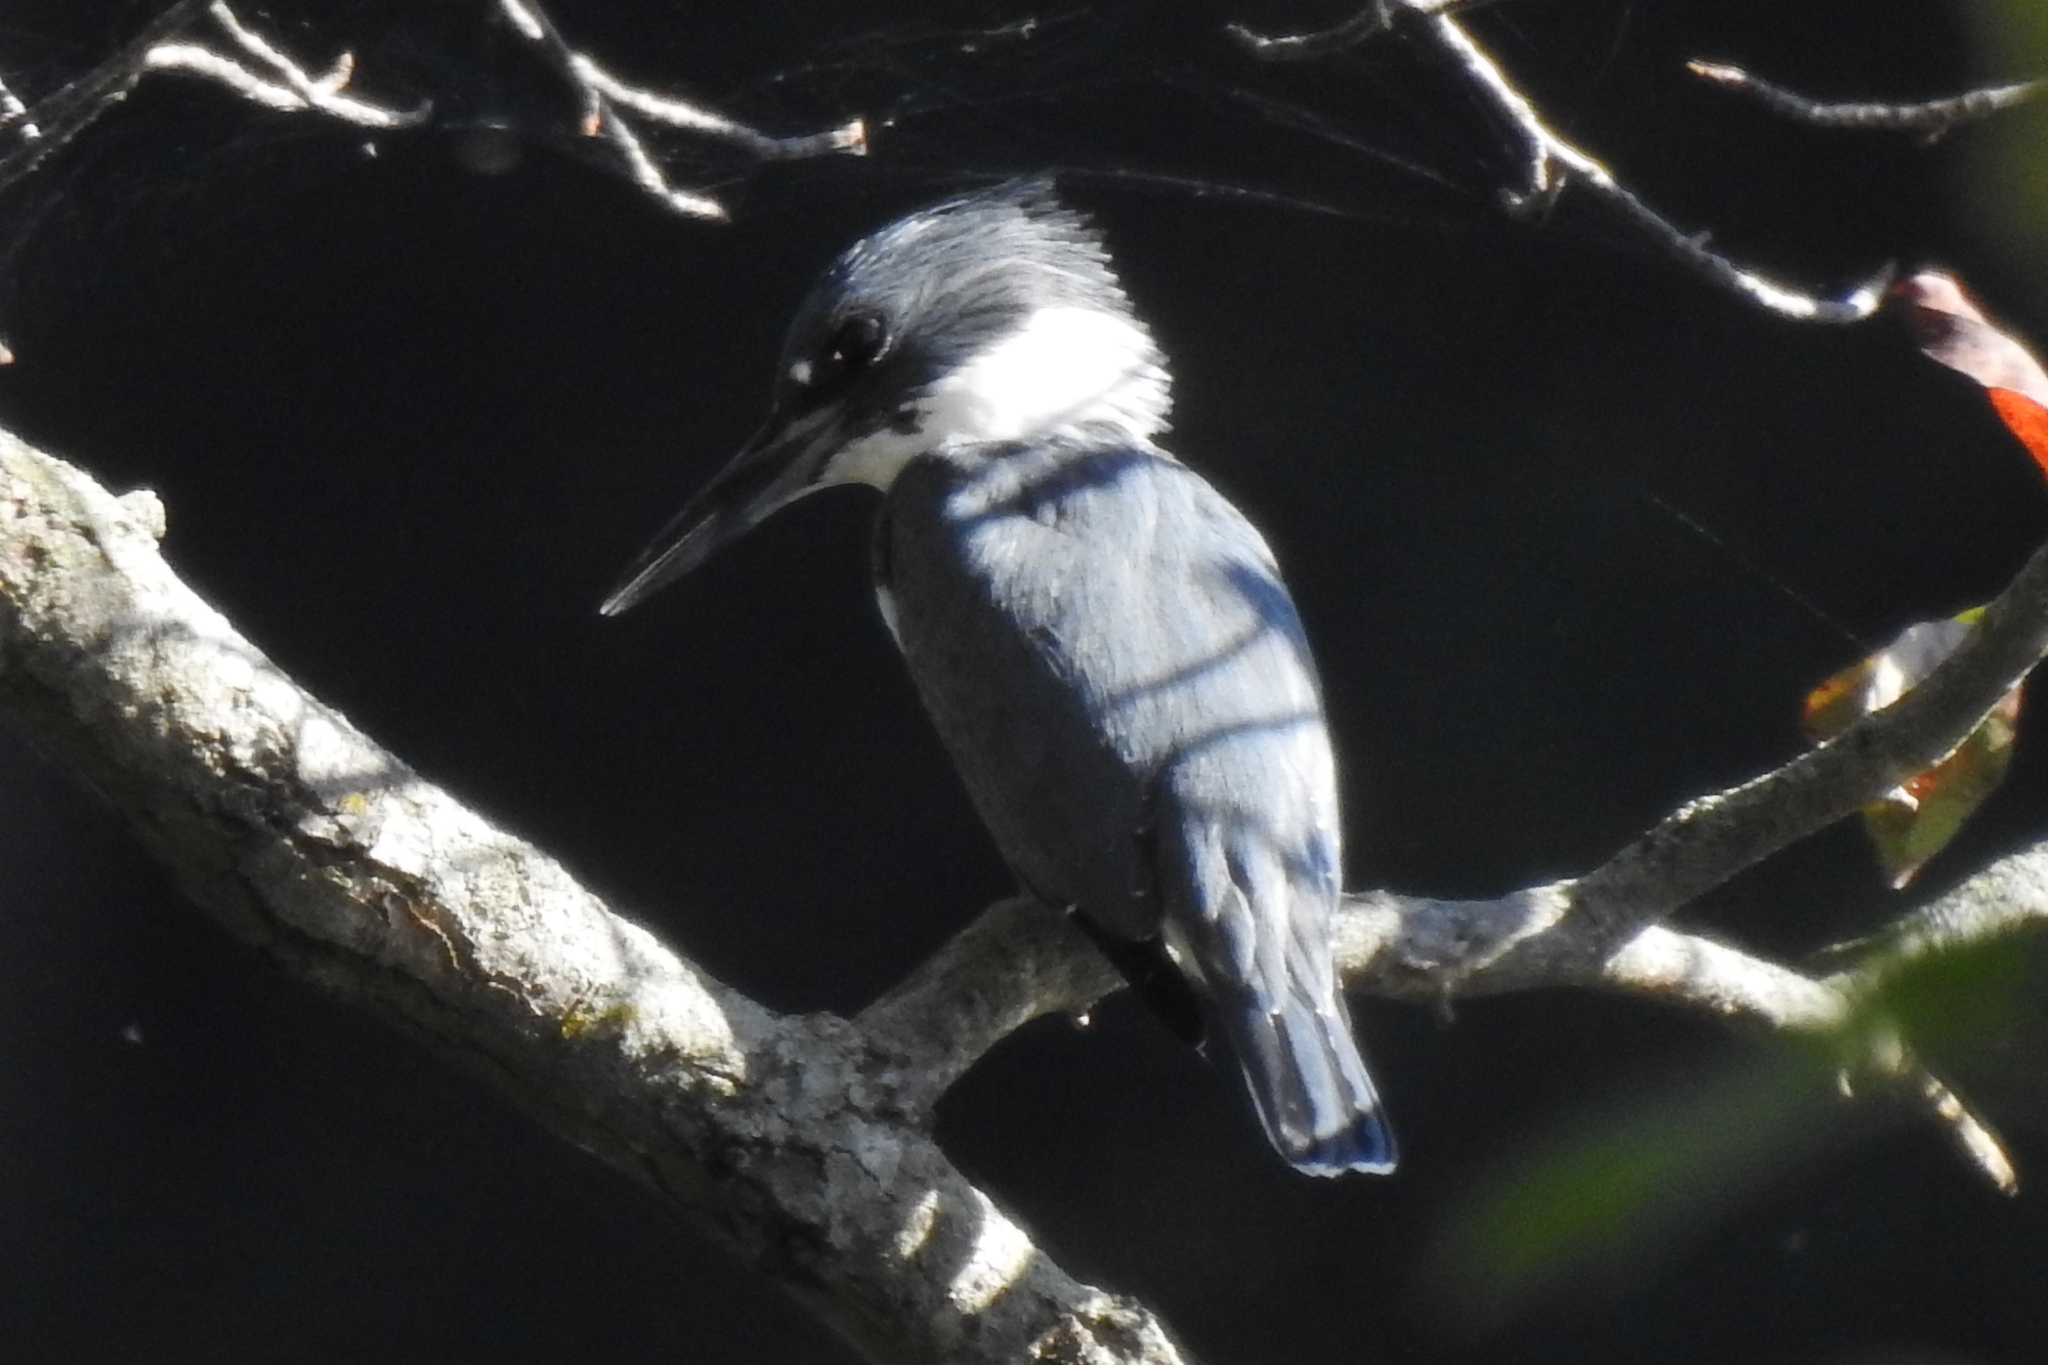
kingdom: Animalia
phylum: Chordata
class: Aves
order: Coraciiformes
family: Alcedinidae
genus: Megaceryle
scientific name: Megaceryle alcyon
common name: Belted kingfisher
